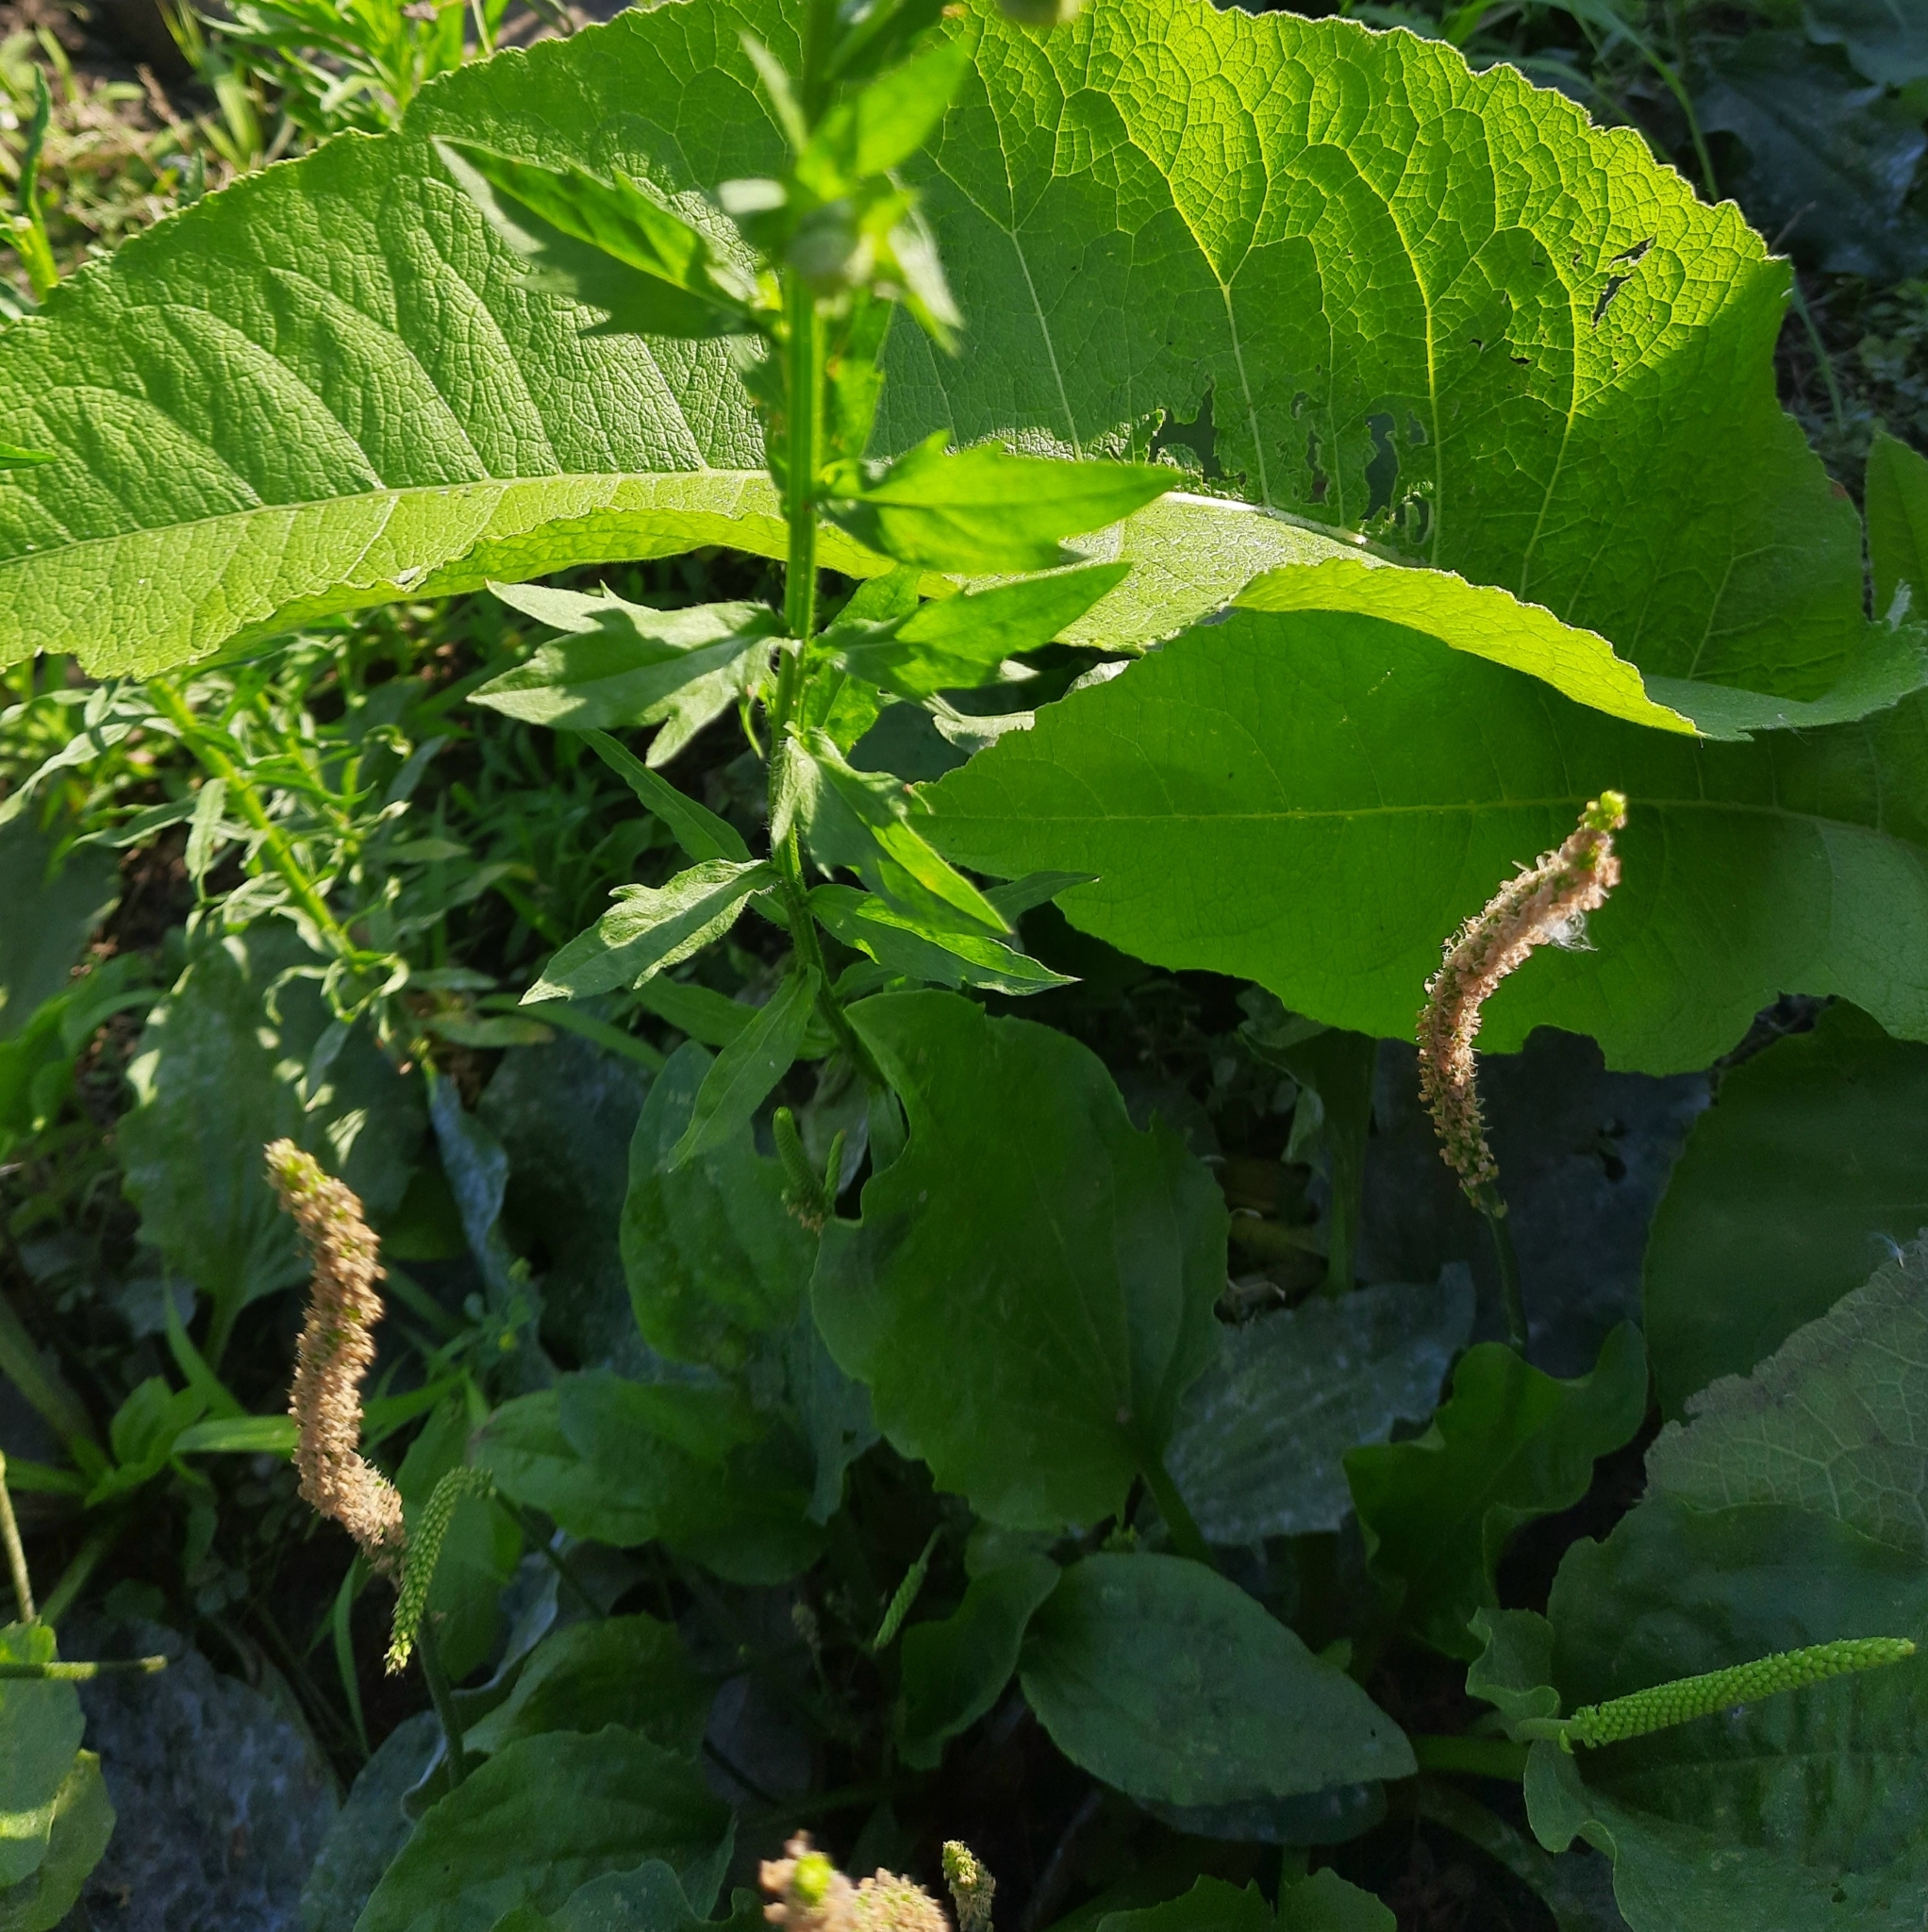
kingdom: Plantae
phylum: Tracheophyta
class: Magnoliopsida
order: Asterales
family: Asteraceae
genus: Erigeron
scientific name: Erigeron annuus
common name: Tall fleabane
